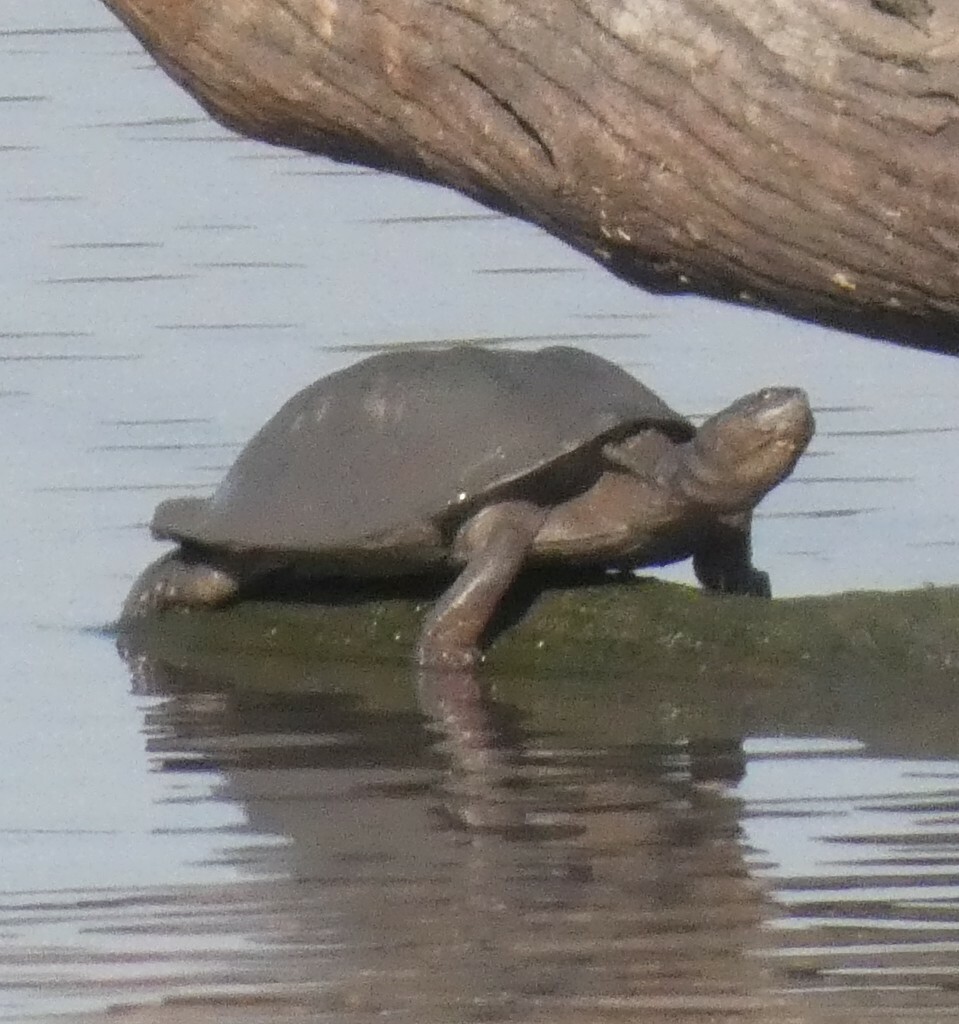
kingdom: Animalia
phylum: Chordata
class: Testudines
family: Pelomedusidae
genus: Pelusios
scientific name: Pelusios sinuatus
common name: Serrated hinged terrapin
